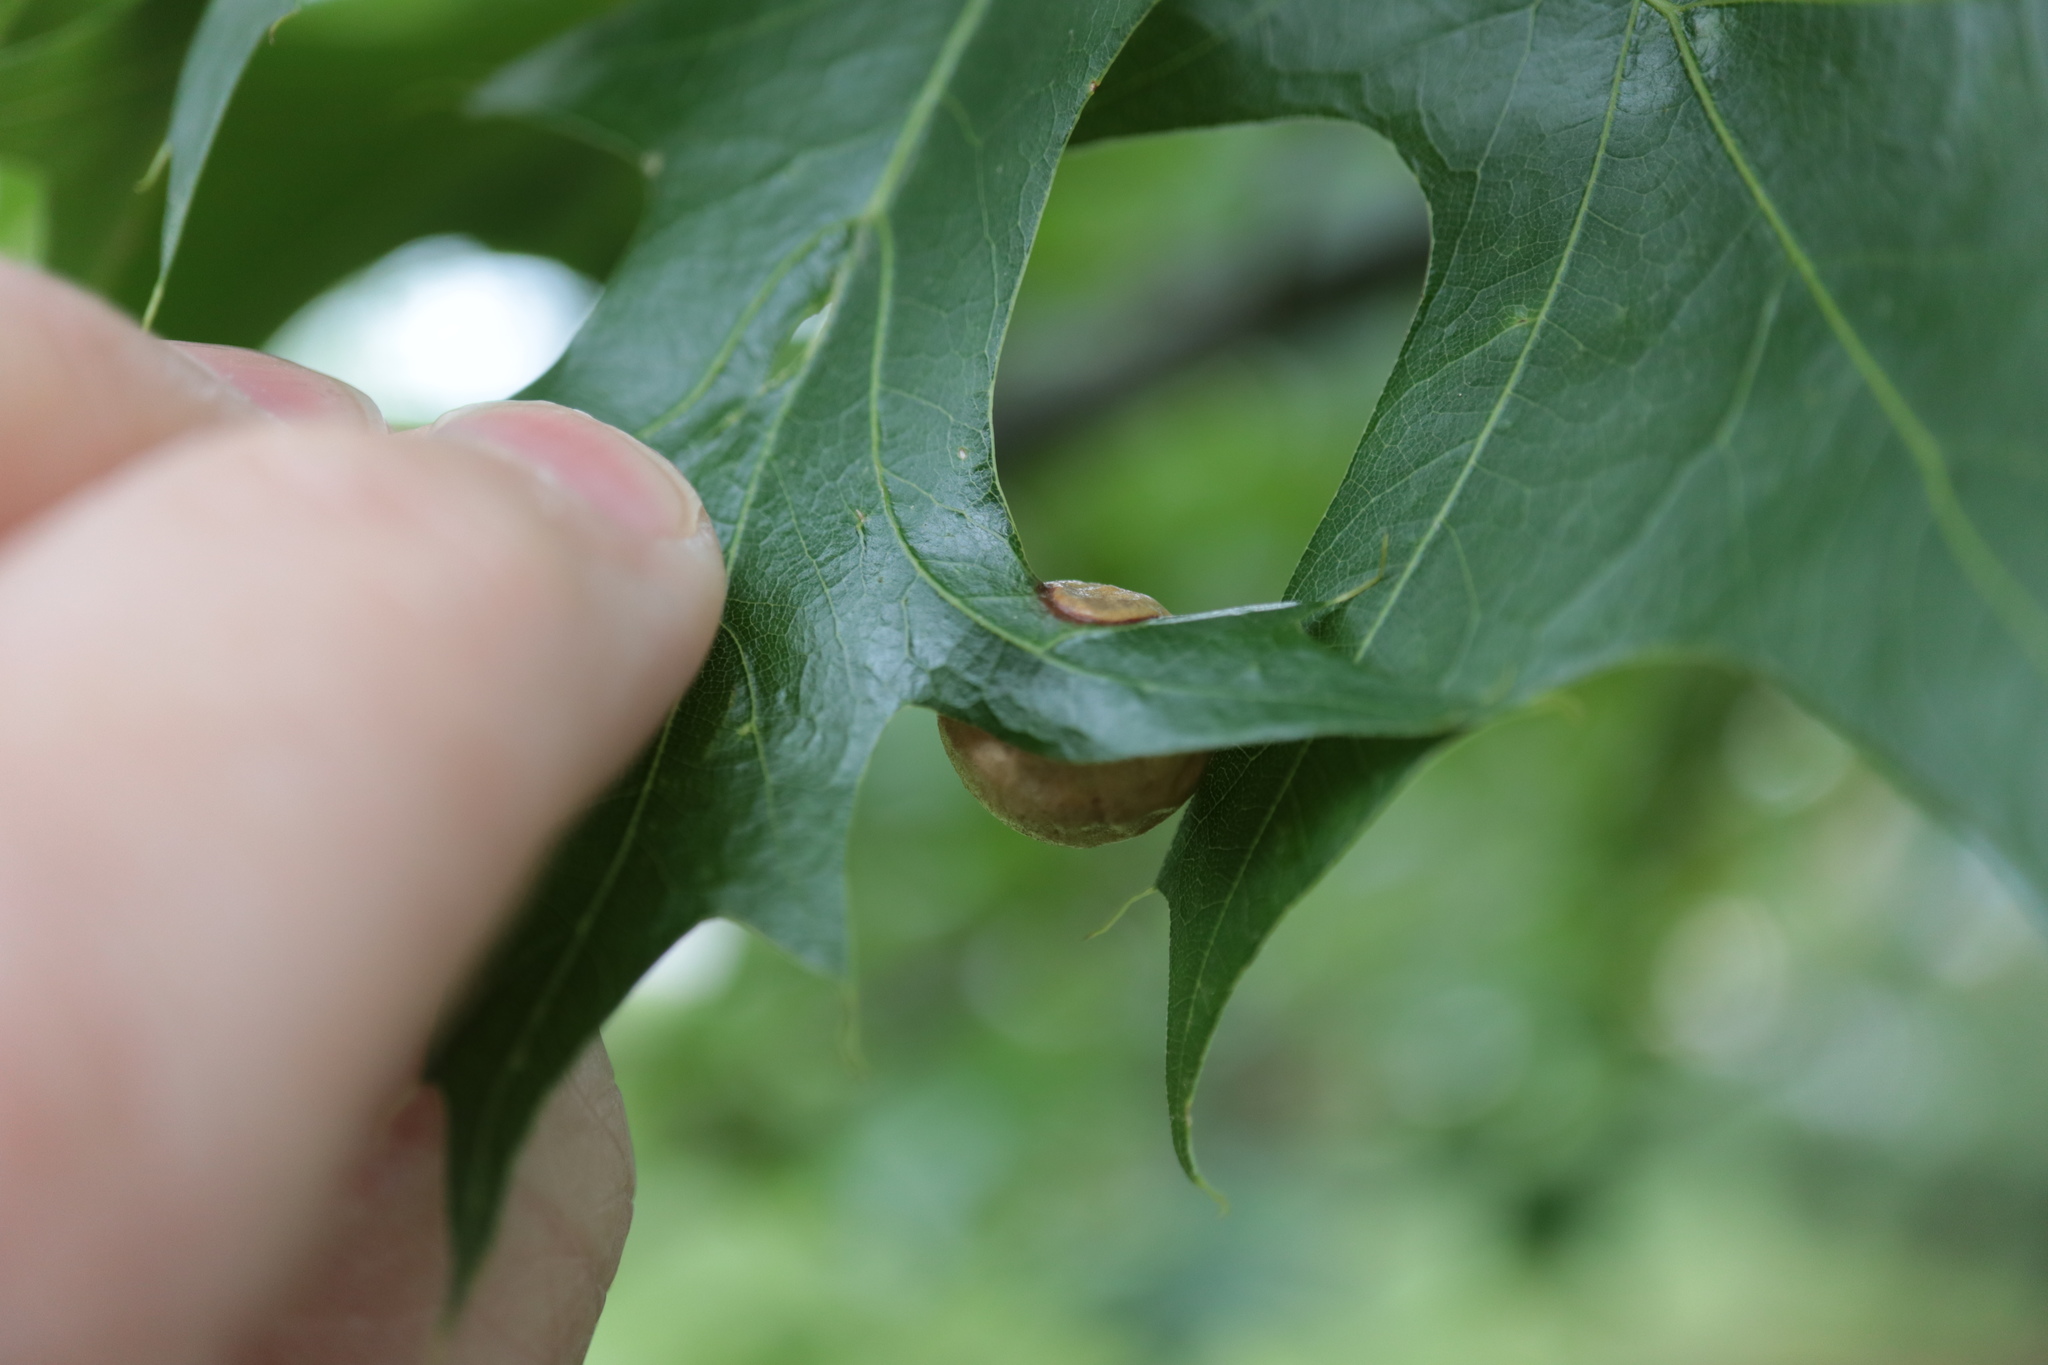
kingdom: Animalia
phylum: Arthropoda
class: Insecta
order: Hymenoptera
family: Cynipidae
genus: Amphibolips
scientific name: Amphibolips
